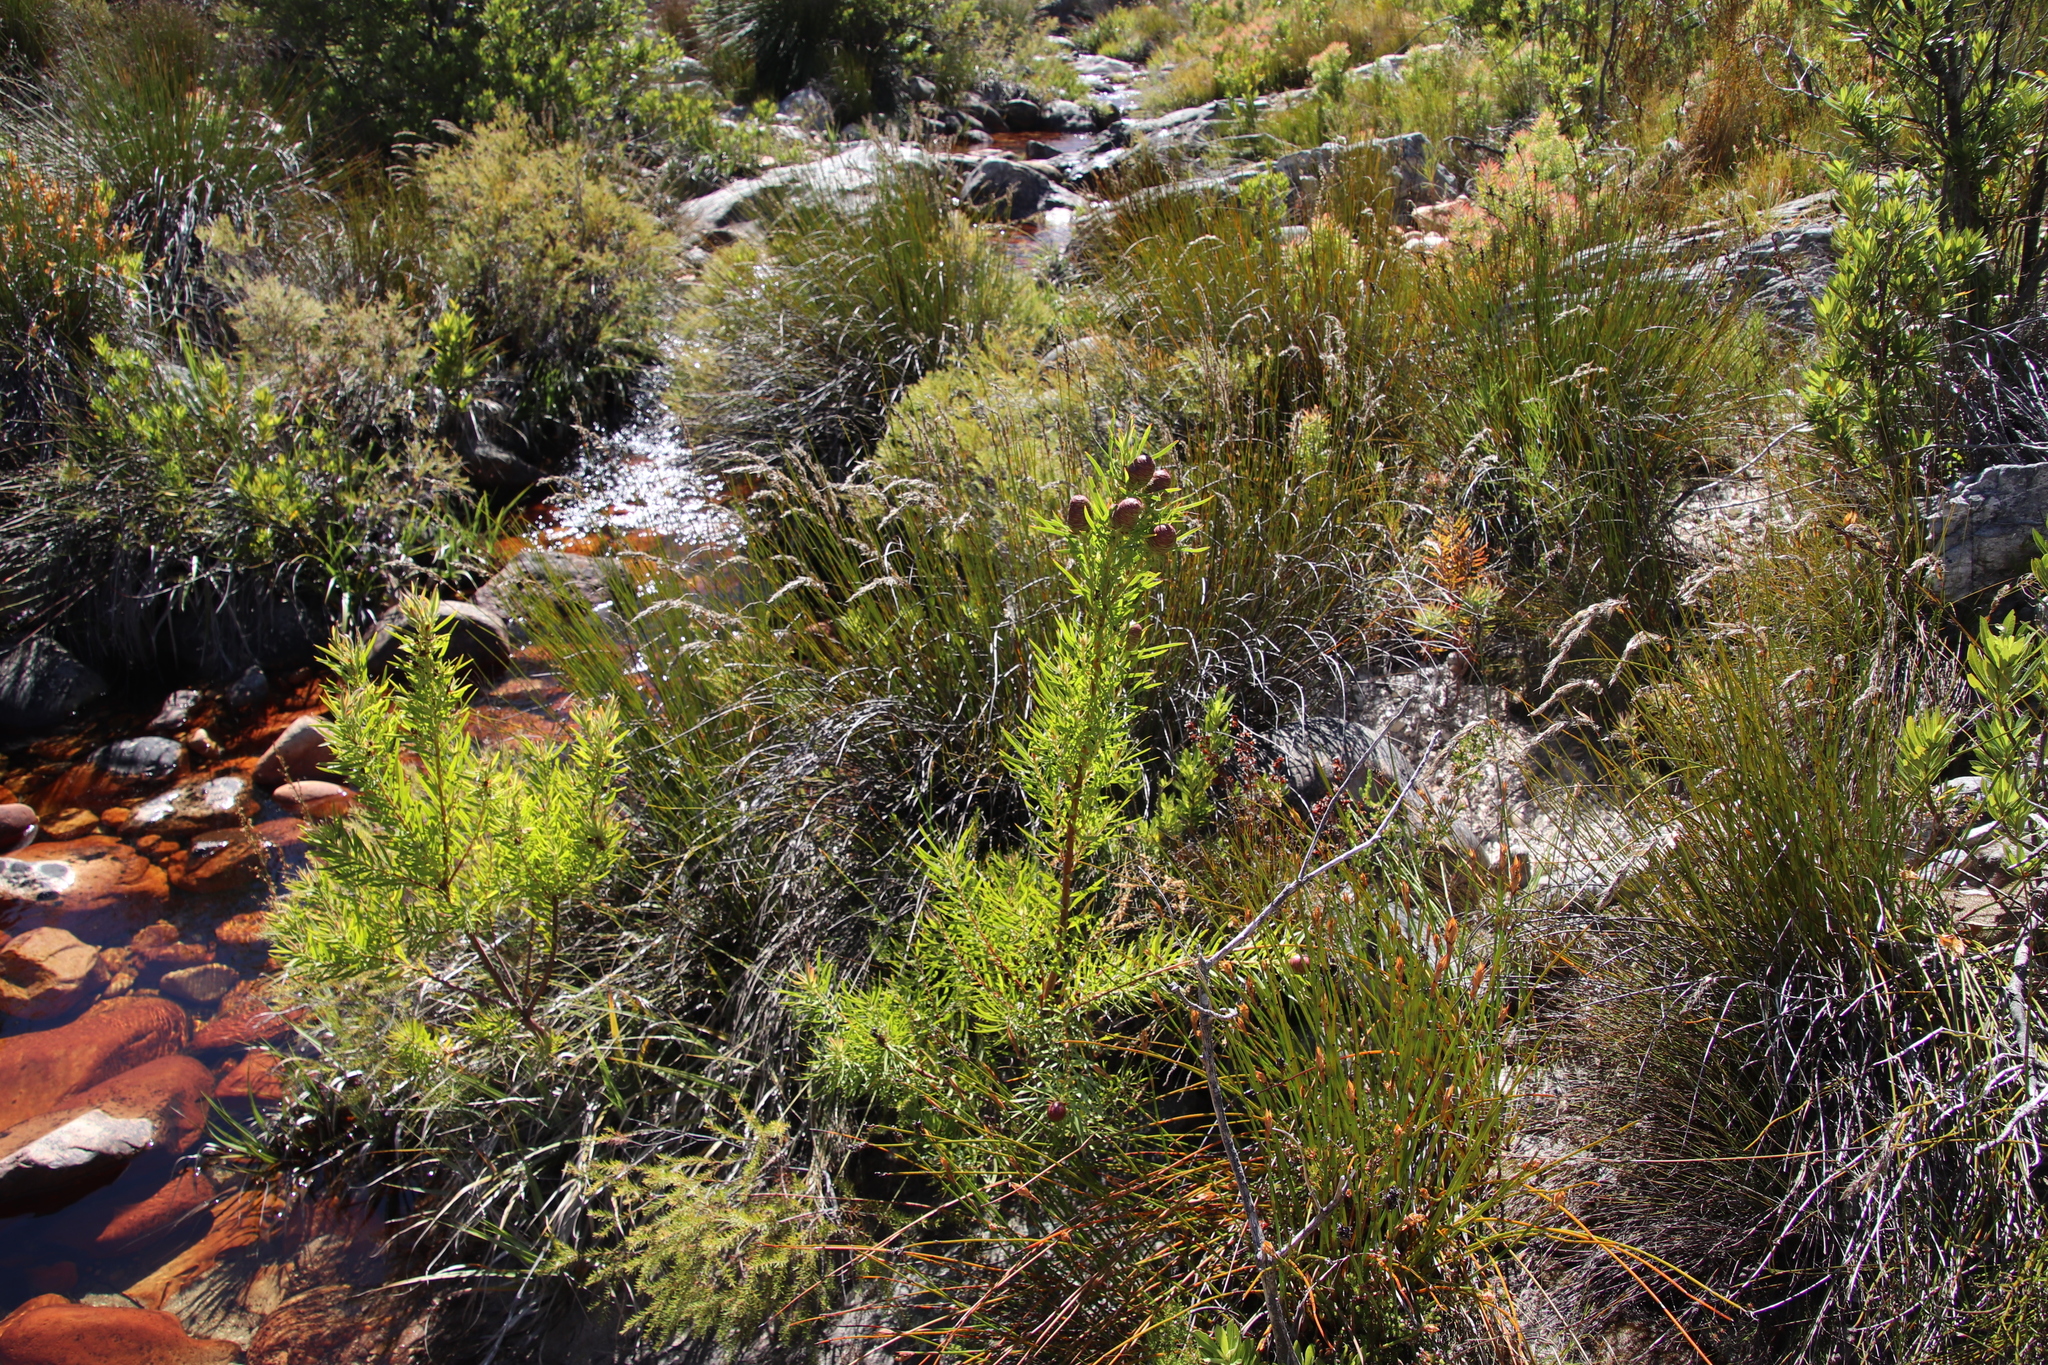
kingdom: Plantae
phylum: Tracheophyta
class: Magnoliopsida
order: Proteales
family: Proteaceae
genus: Leucadendron
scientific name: Leucadendron salicifolium
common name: Common stream conebush
